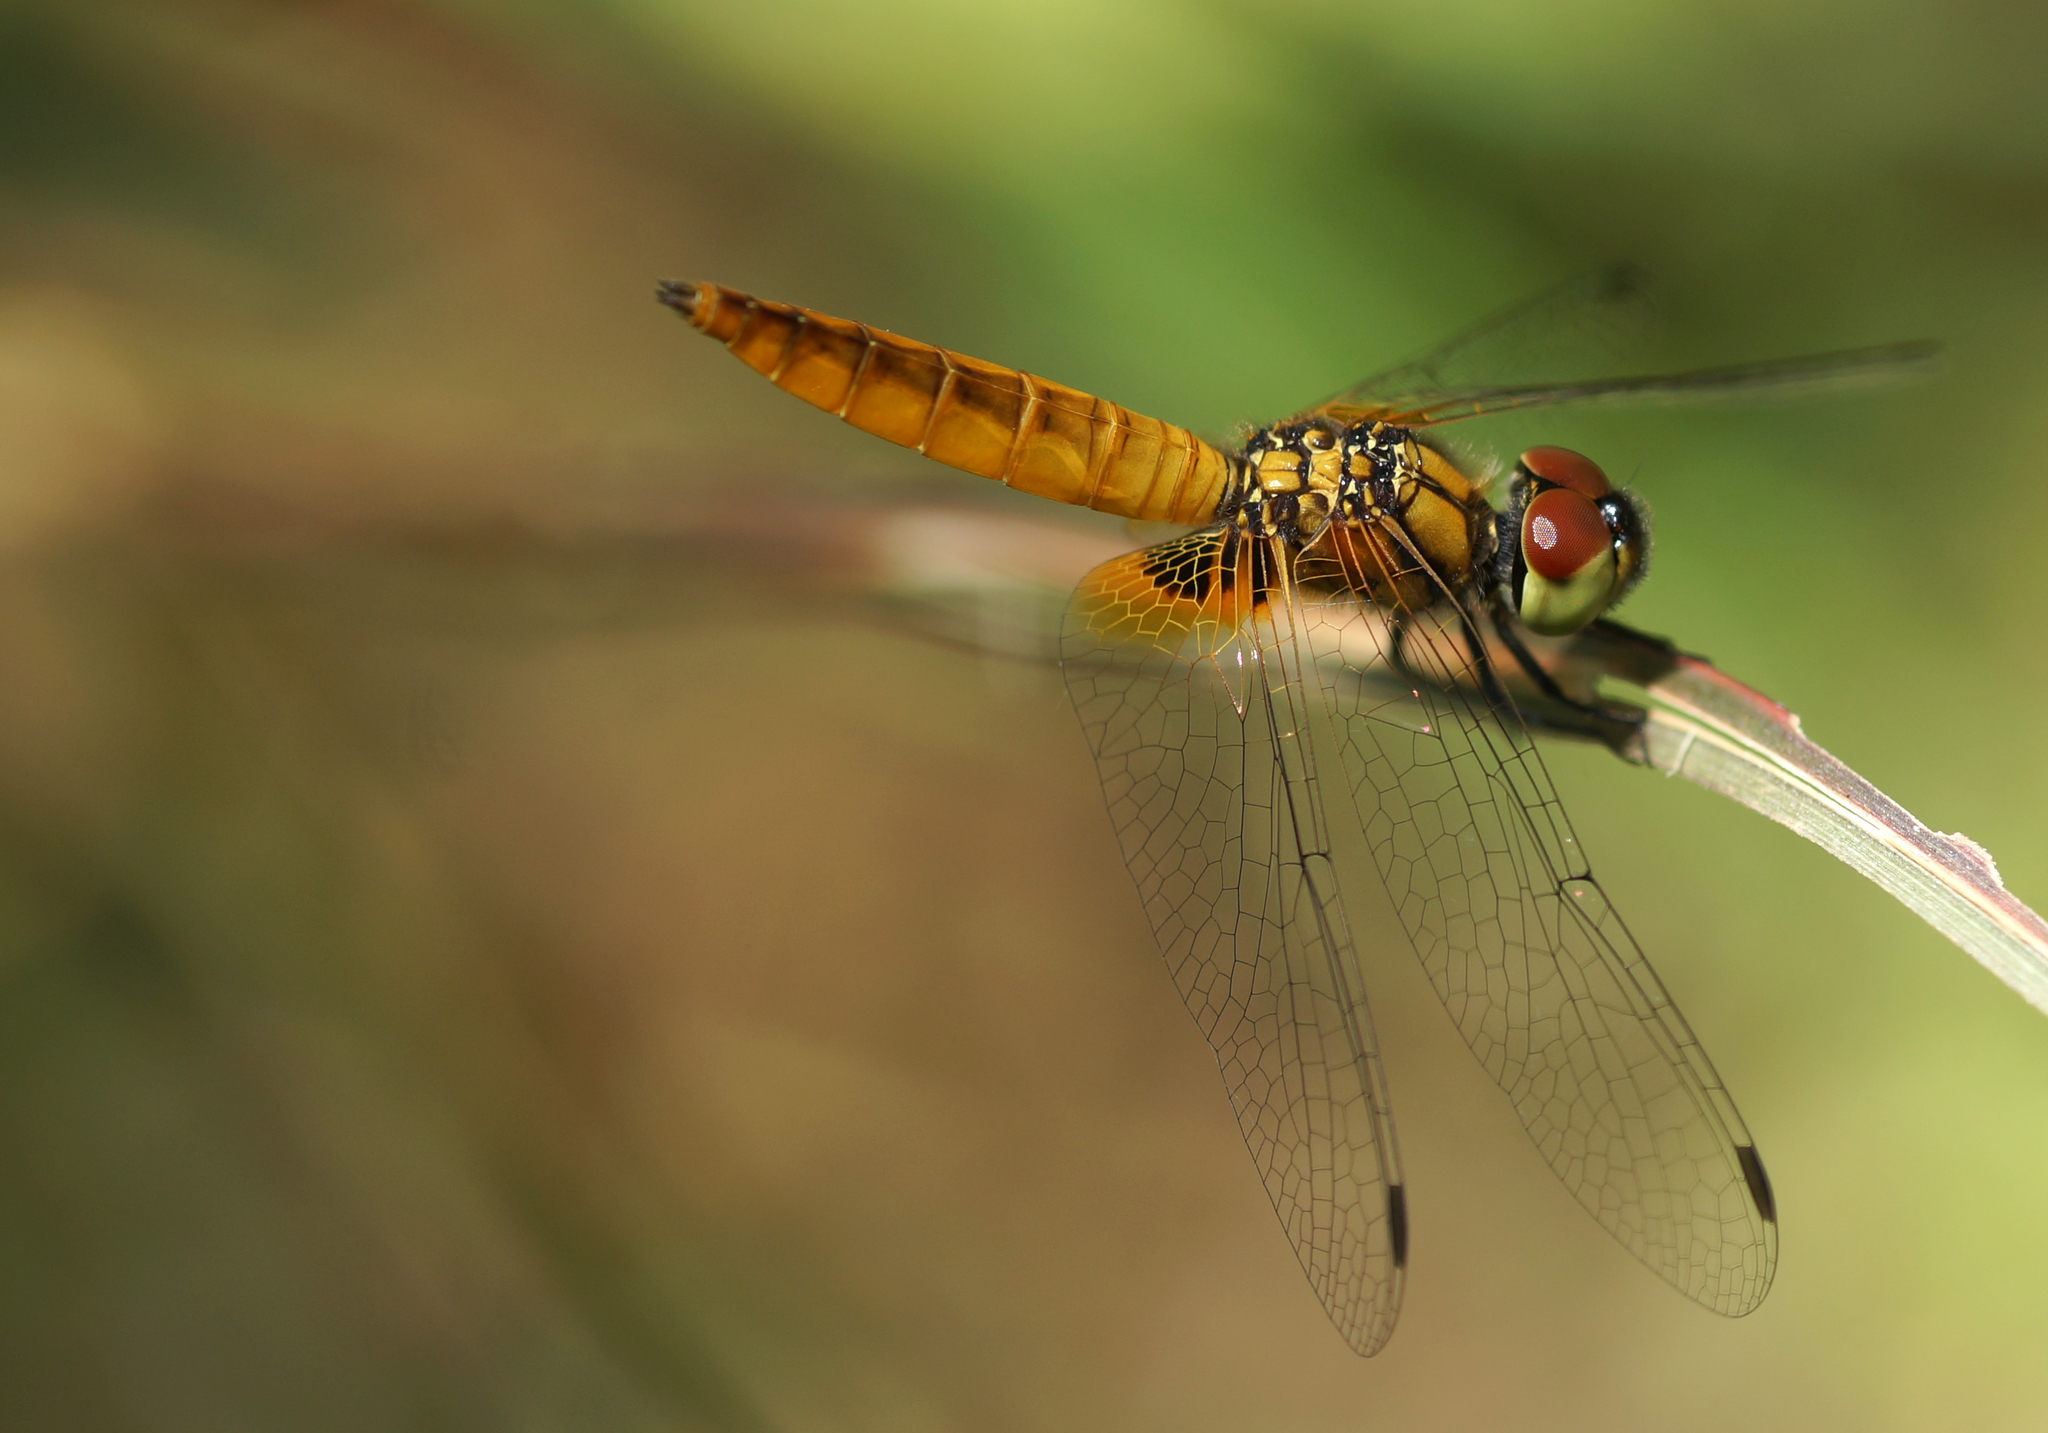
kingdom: Animalia
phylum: Arthropoda
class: Insecta
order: Odonata
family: Libellulidae
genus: Aethriamanta
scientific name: Aethriamanta brevipennis
